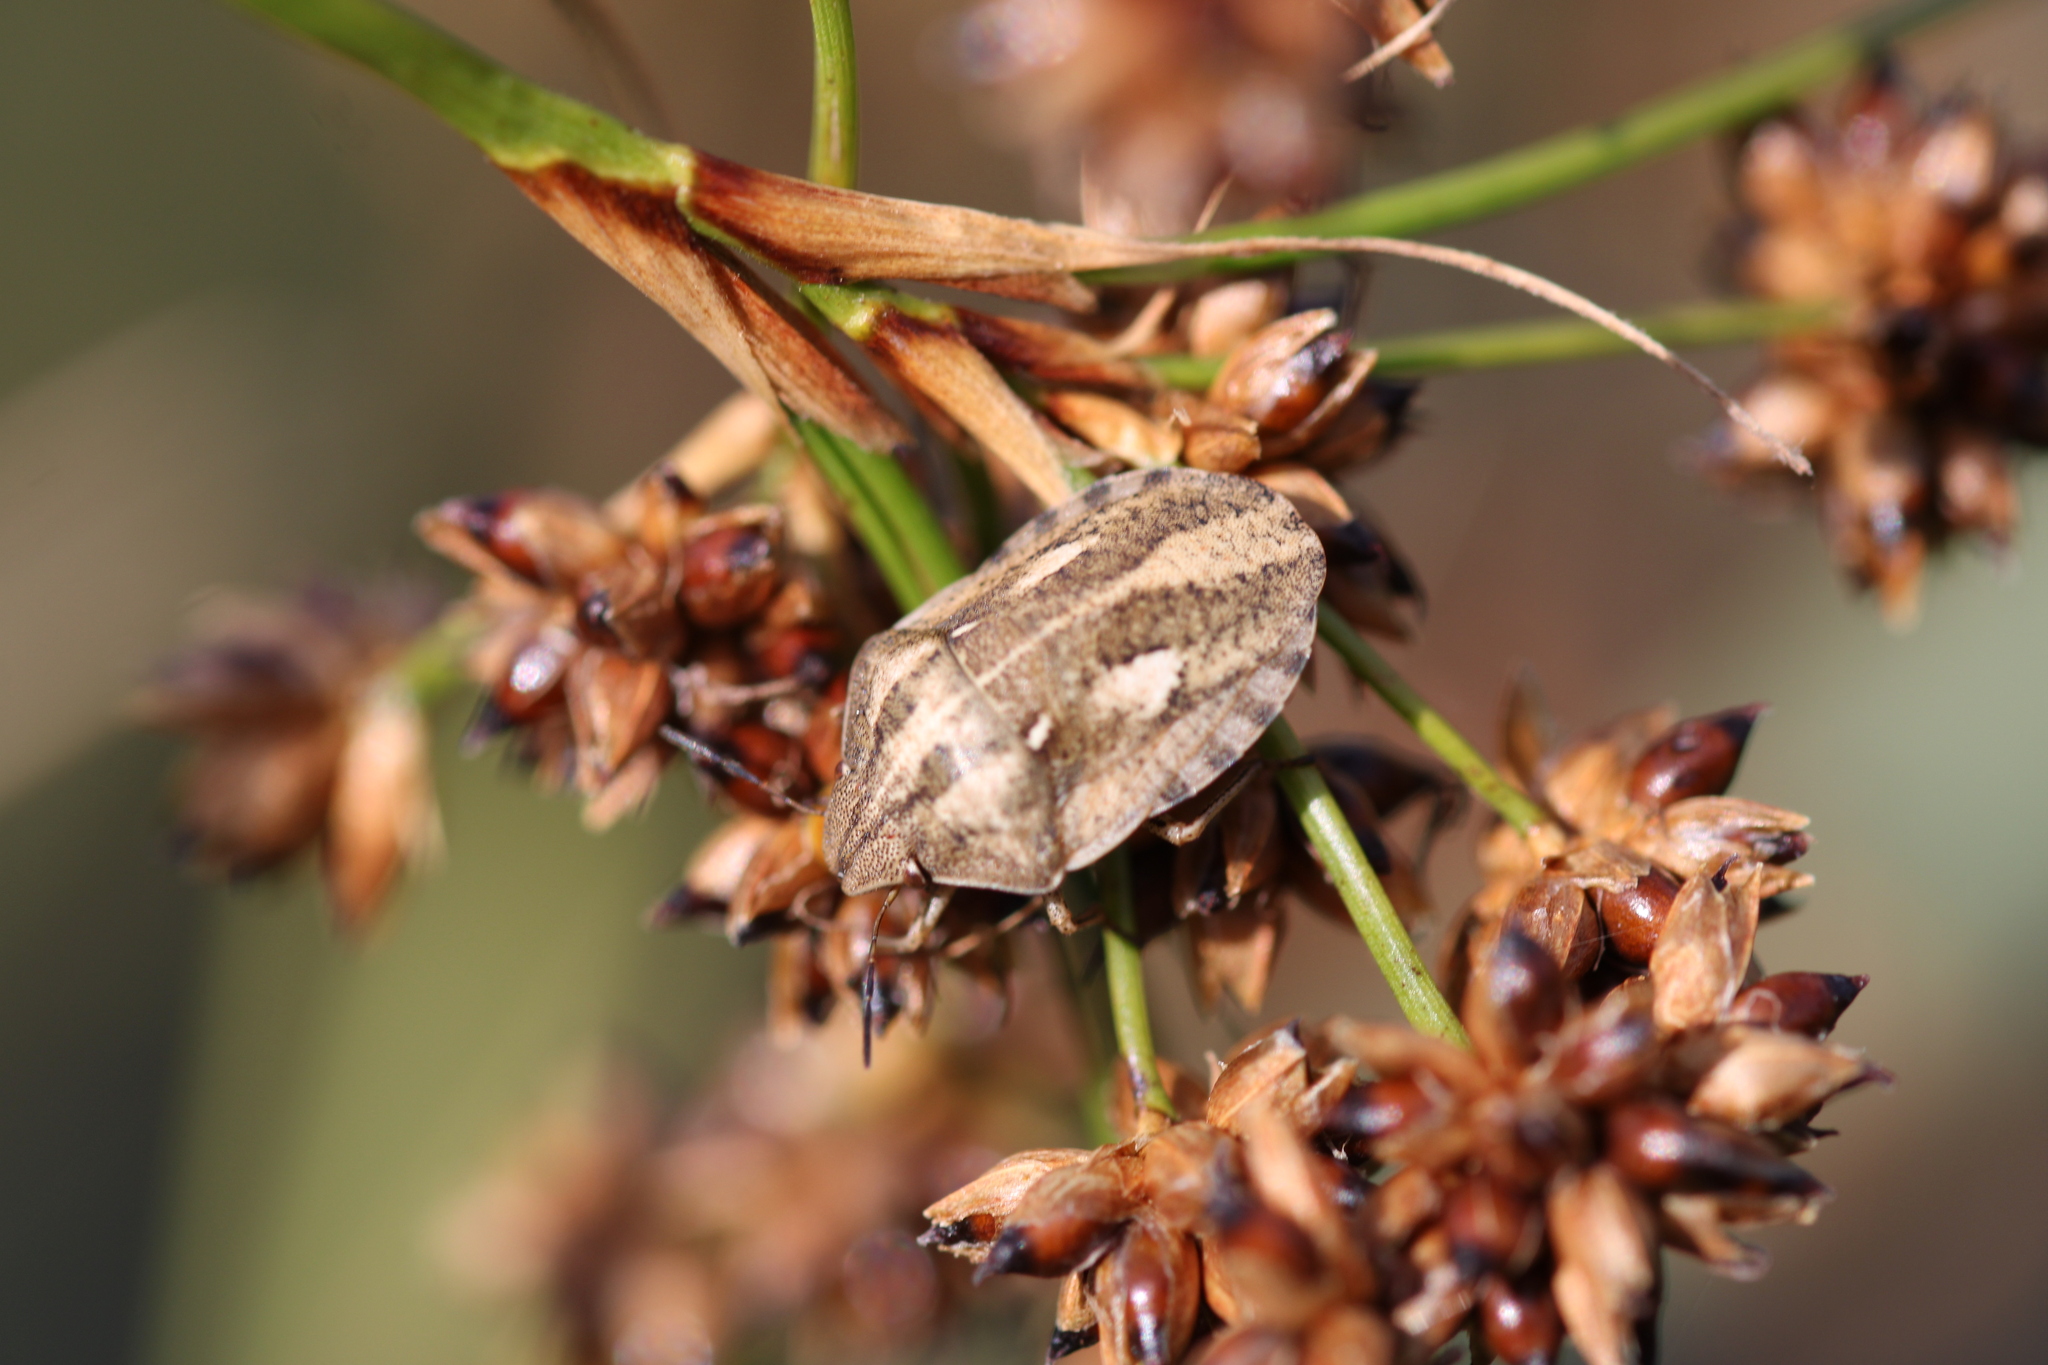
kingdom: Animalia
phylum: Arthropoda
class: Insecta
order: Hemiptera
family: Scutelleridae
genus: Eurygaster
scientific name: Eurygaster testudinaria
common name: Tortoise bug
